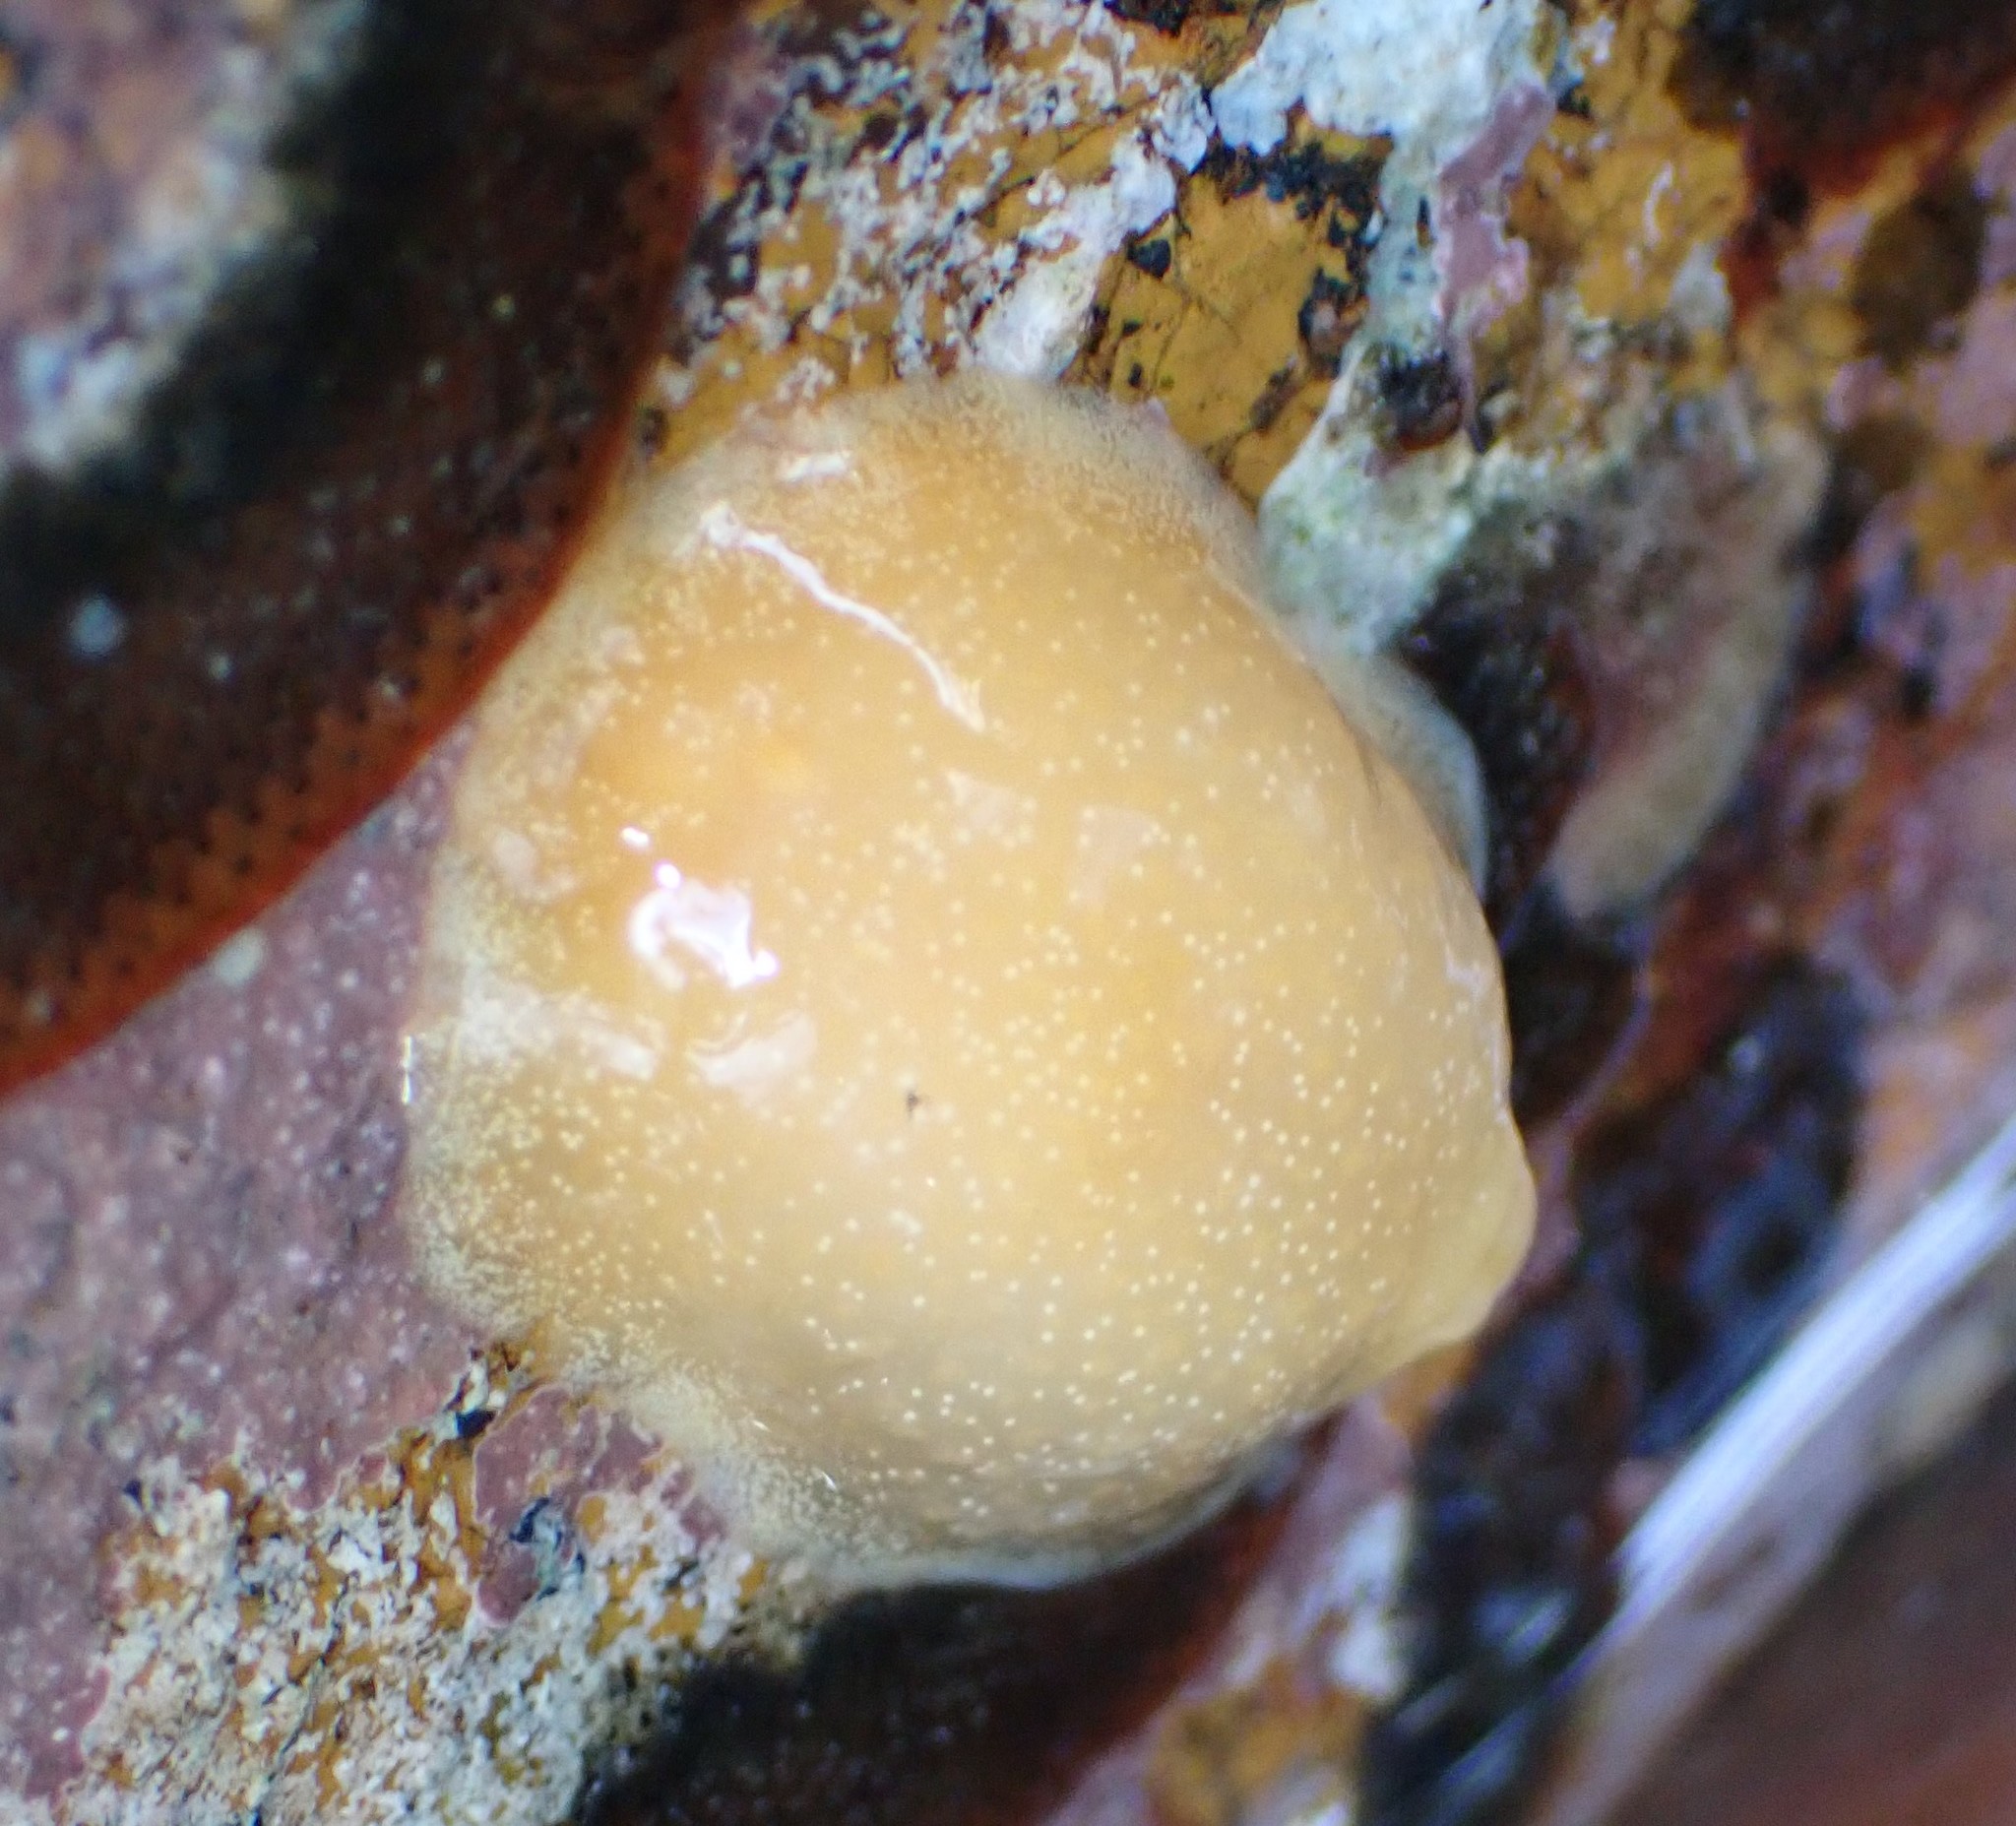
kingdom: Animalia
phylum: Mollusca
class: Gastropoda
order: Nudibranchia
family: Dendrodorididae
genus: Dendrodoris
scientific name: Dendrodoris citrina
